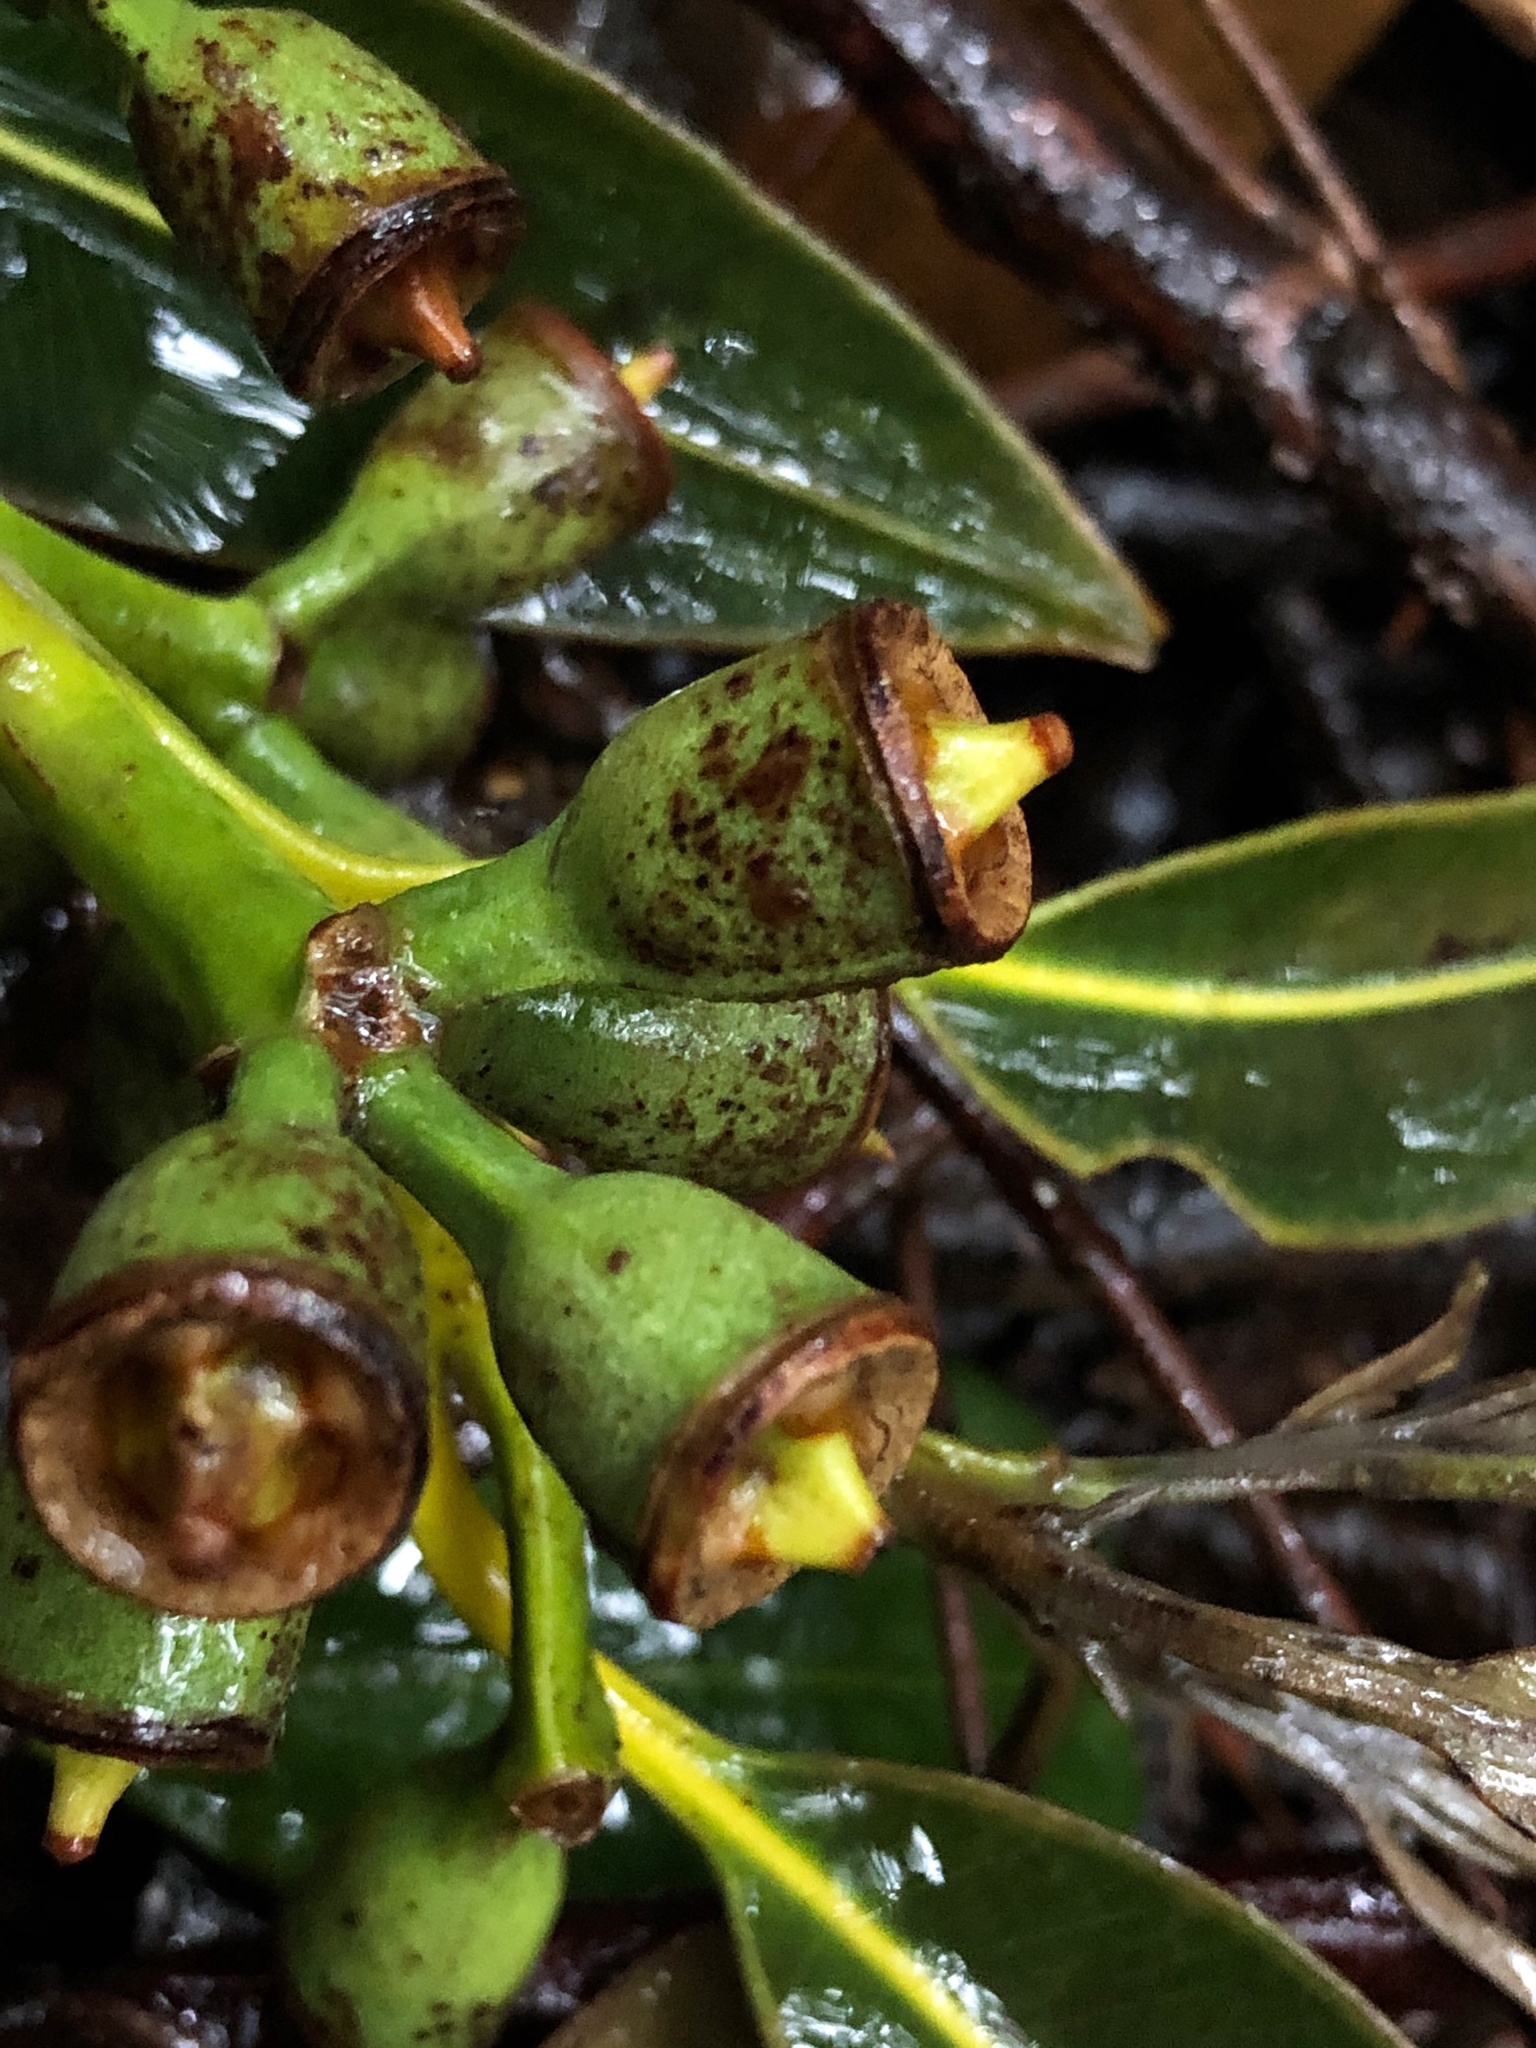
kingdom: Plantae
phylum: Tracheophyta
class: Magnoliopsida
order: Myrtales
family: Myrtaceae
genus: Eucalyptus
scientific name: Eucalyptus robusta
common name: Swampmahogany
